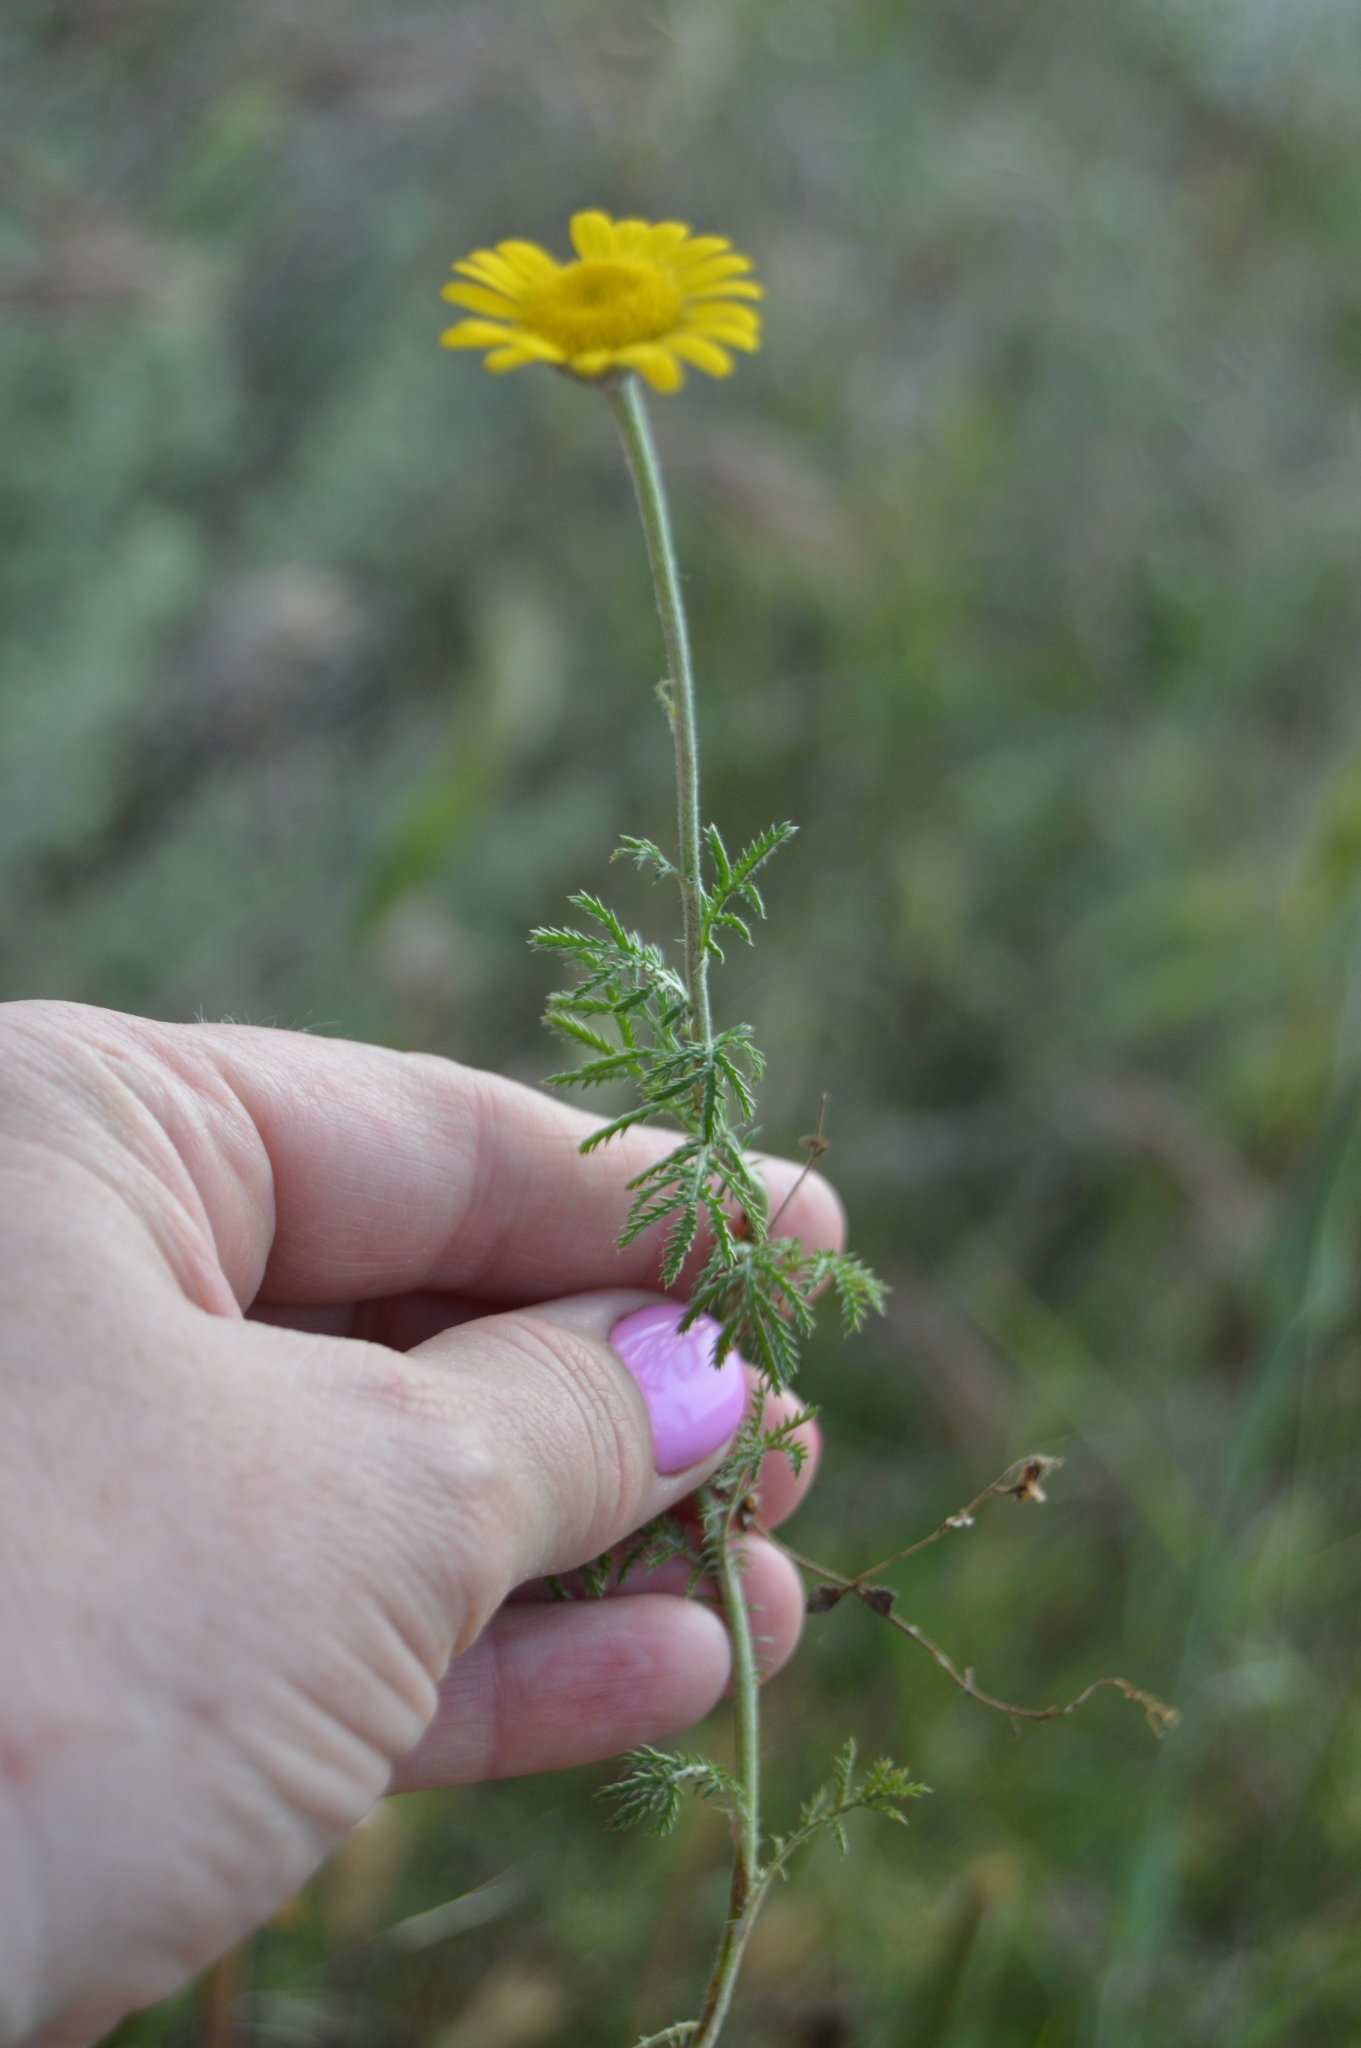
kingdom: Plantae
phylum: Tracheophyta
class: Magnoliopsida
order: Asterales
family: Asteraceae
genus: Cota
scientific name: Cota tinctoria
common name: Golden chamomile
